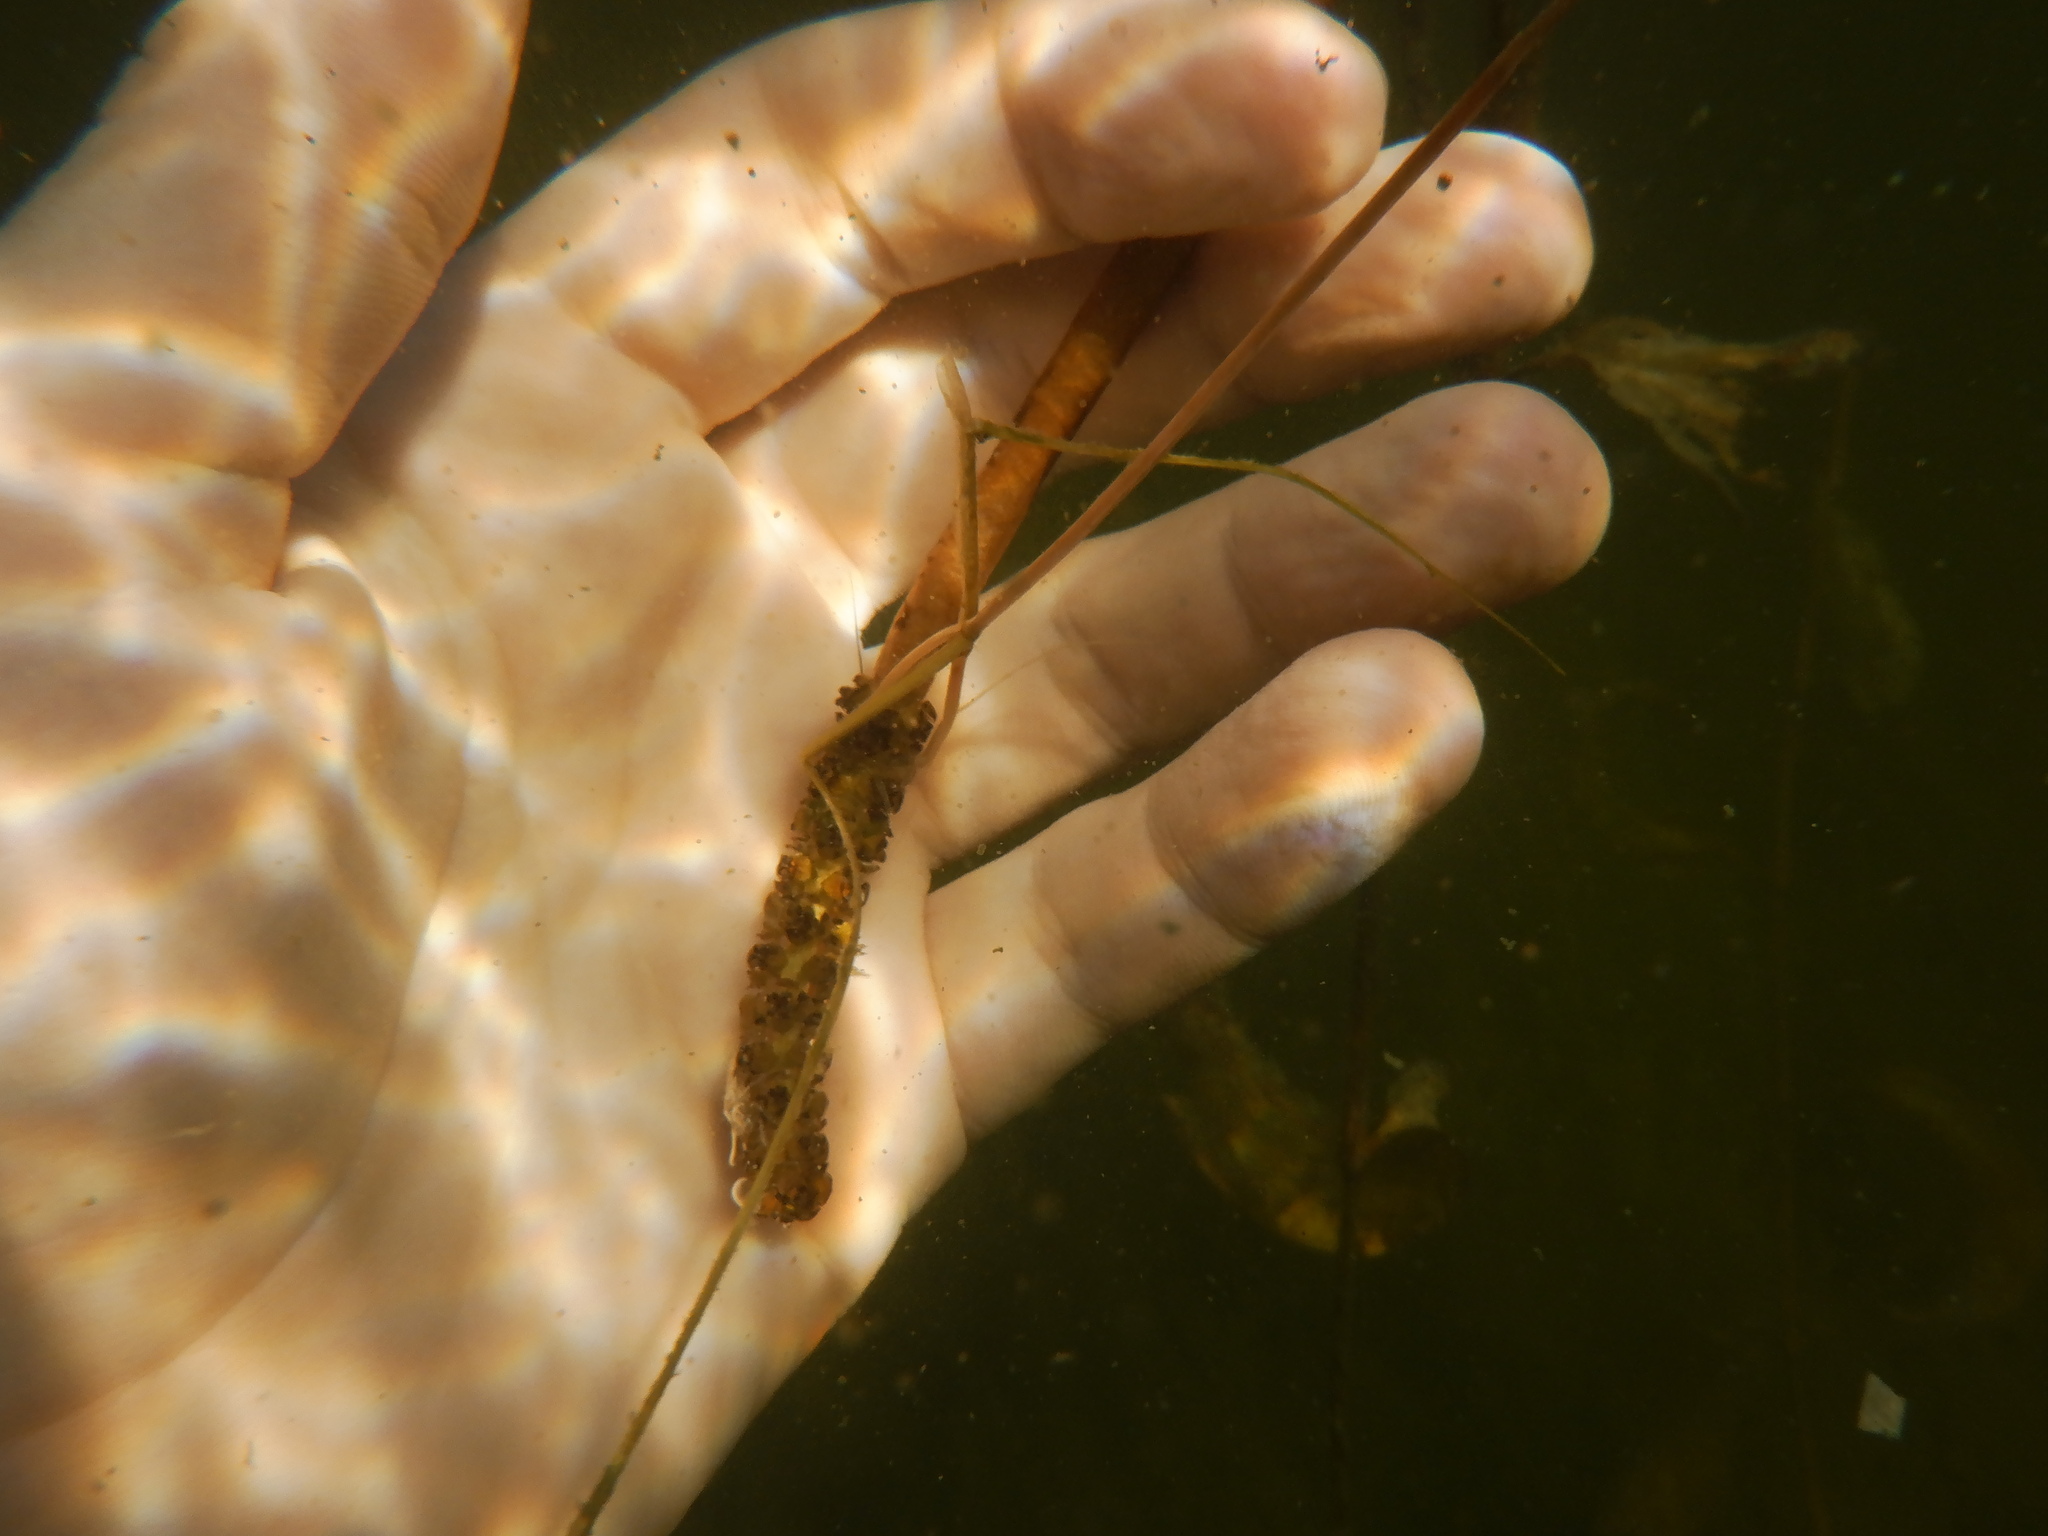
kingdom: Plantae
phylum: Tracheophyta
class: Liliopsida
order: Alismatales
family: Potamogetonaceae
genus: Potamogeton
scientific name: Potamogeton amplifolius
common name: Broad-leaved pondweed
